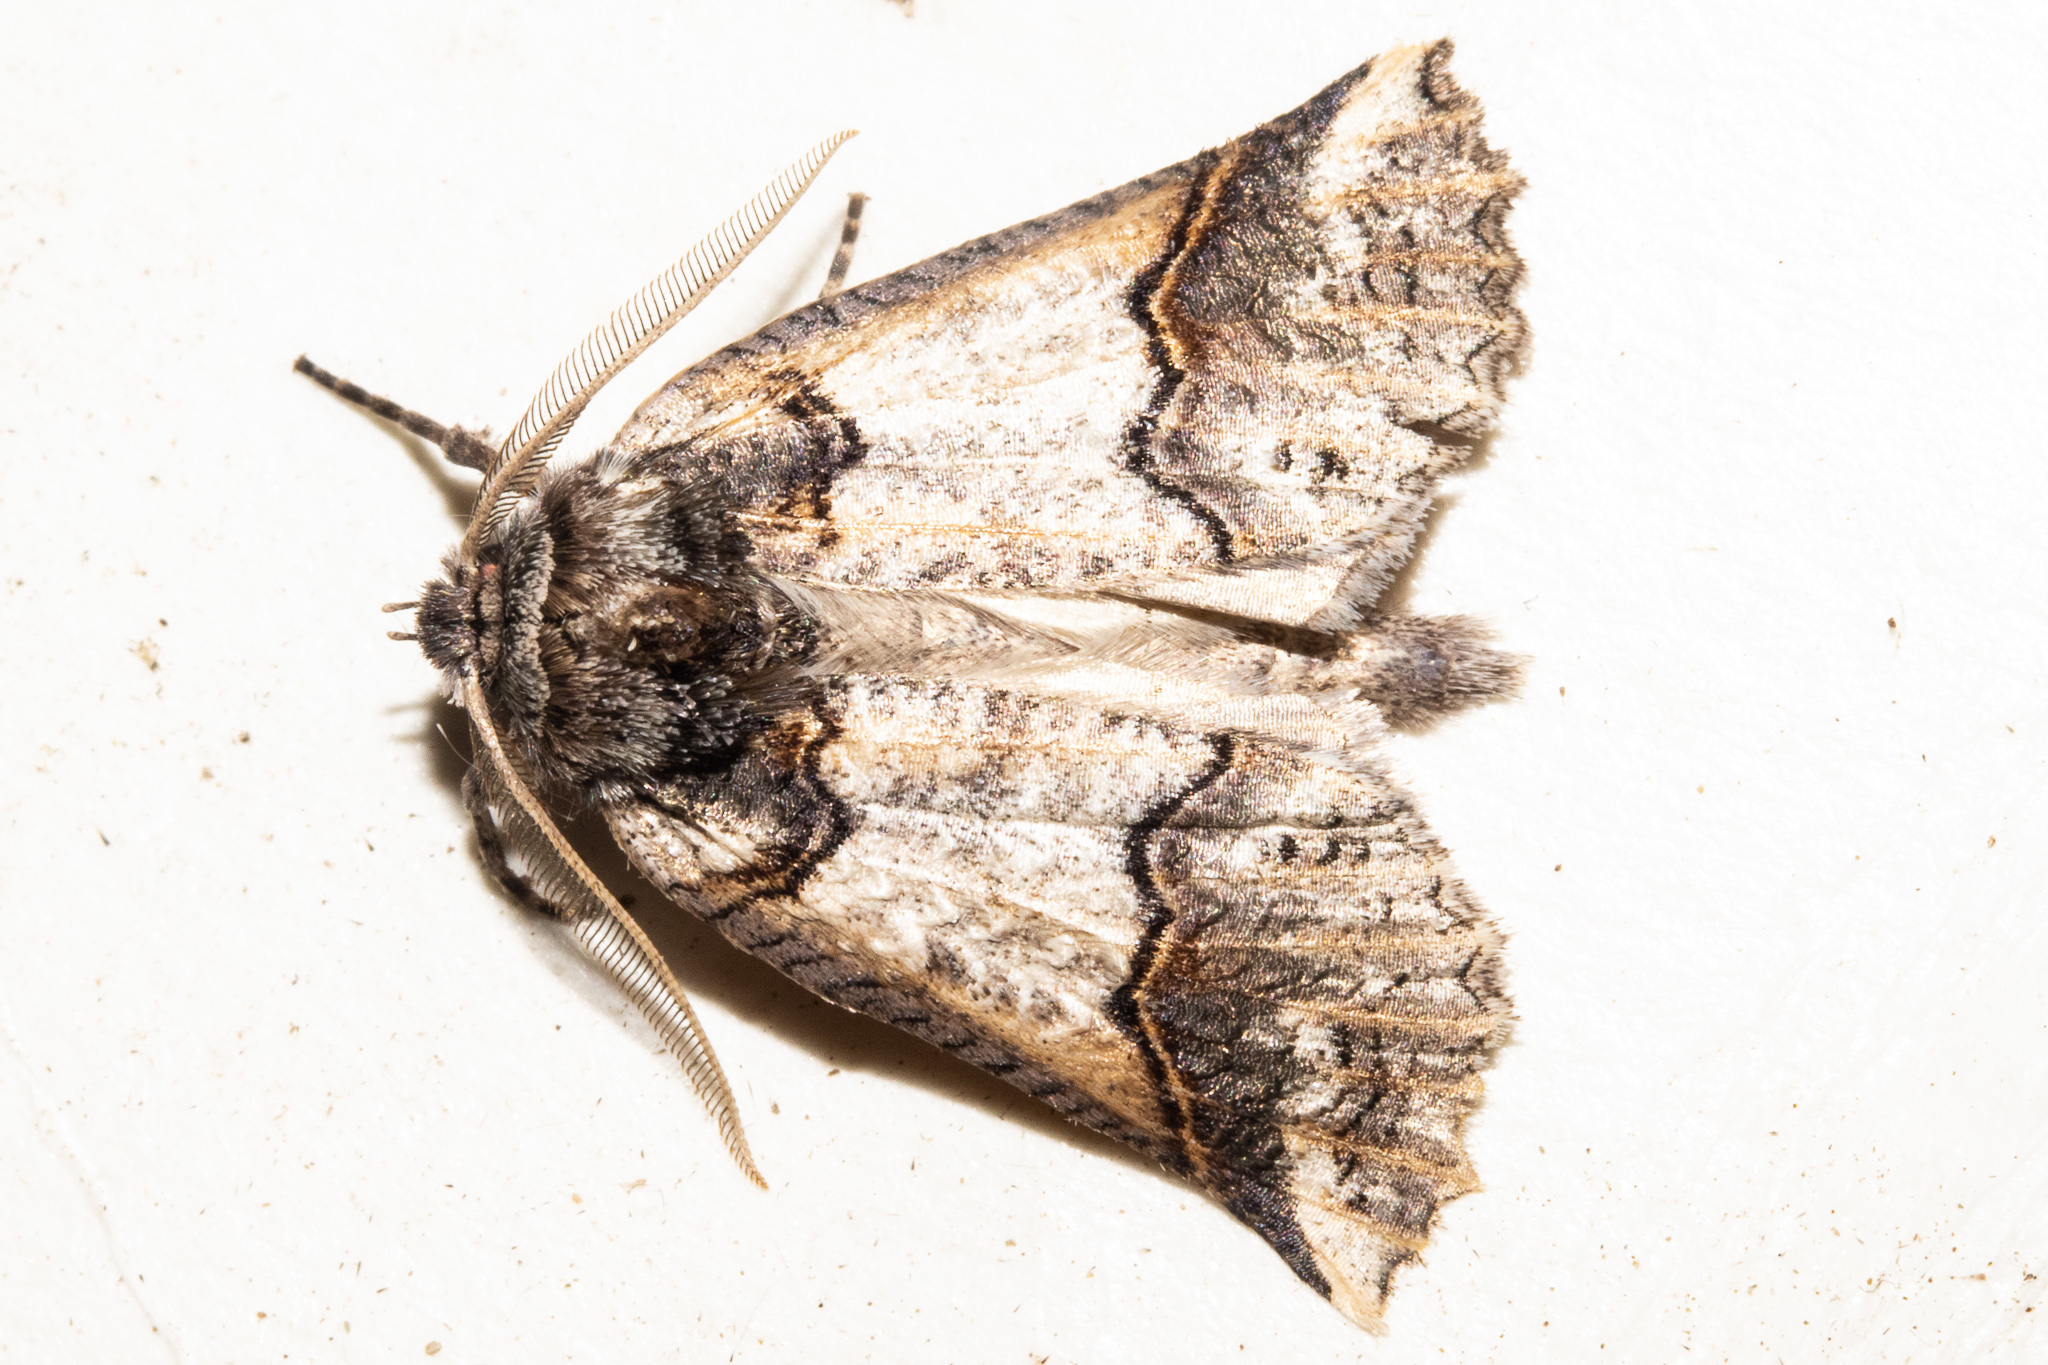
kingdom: Animalia
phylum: Arthropoda
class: Insecta
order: Lepidoptera
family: Geometridae
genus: Declana
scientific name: Declana
